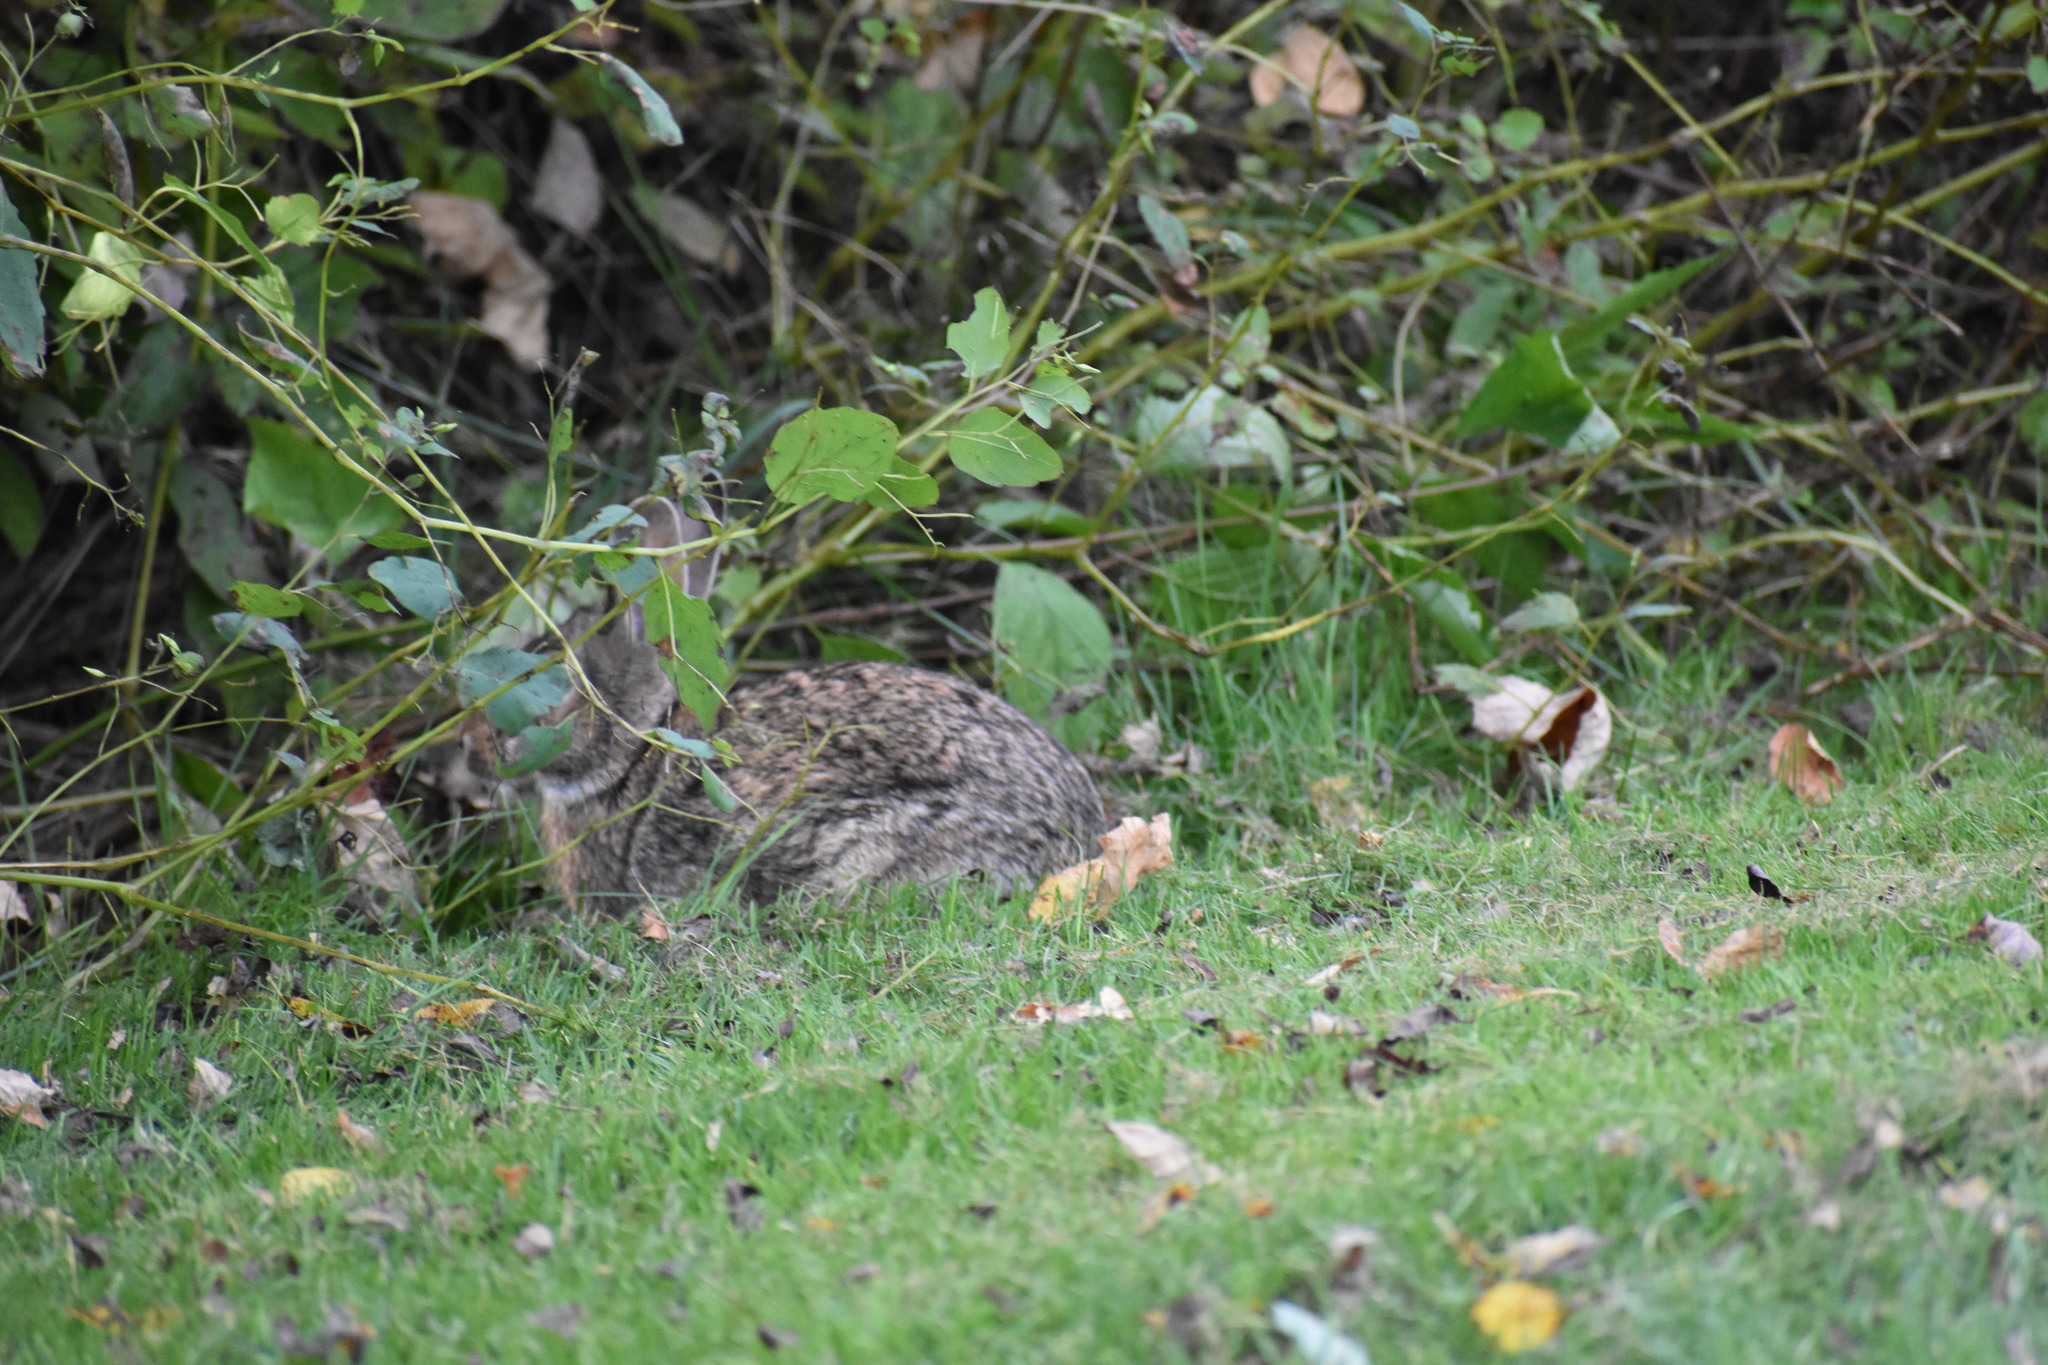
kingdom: Animalia
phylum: Chordata
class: Mammalia
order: Lagomorpha
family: Leporidae
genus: Sylvilagus
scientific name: Sylvilagus floridanus
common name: Eastern cottontail
